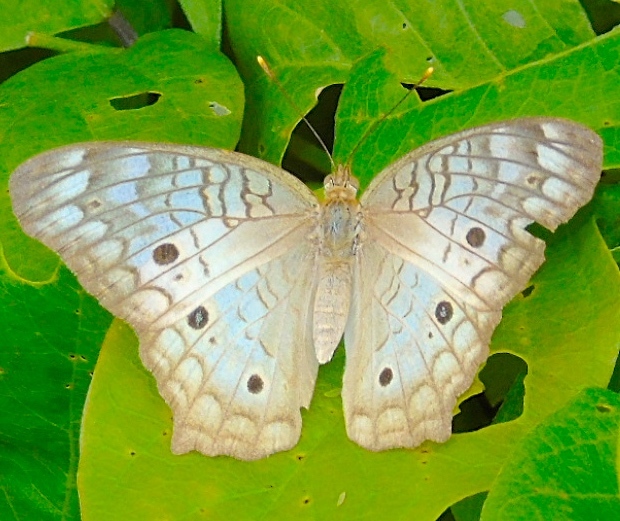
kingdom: Animalia
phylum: Arthropoda
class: Insecta
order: Lepidoptera
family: Nymphalidae
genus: Anartia
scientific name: Anartia jatrophae
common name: White peacock
